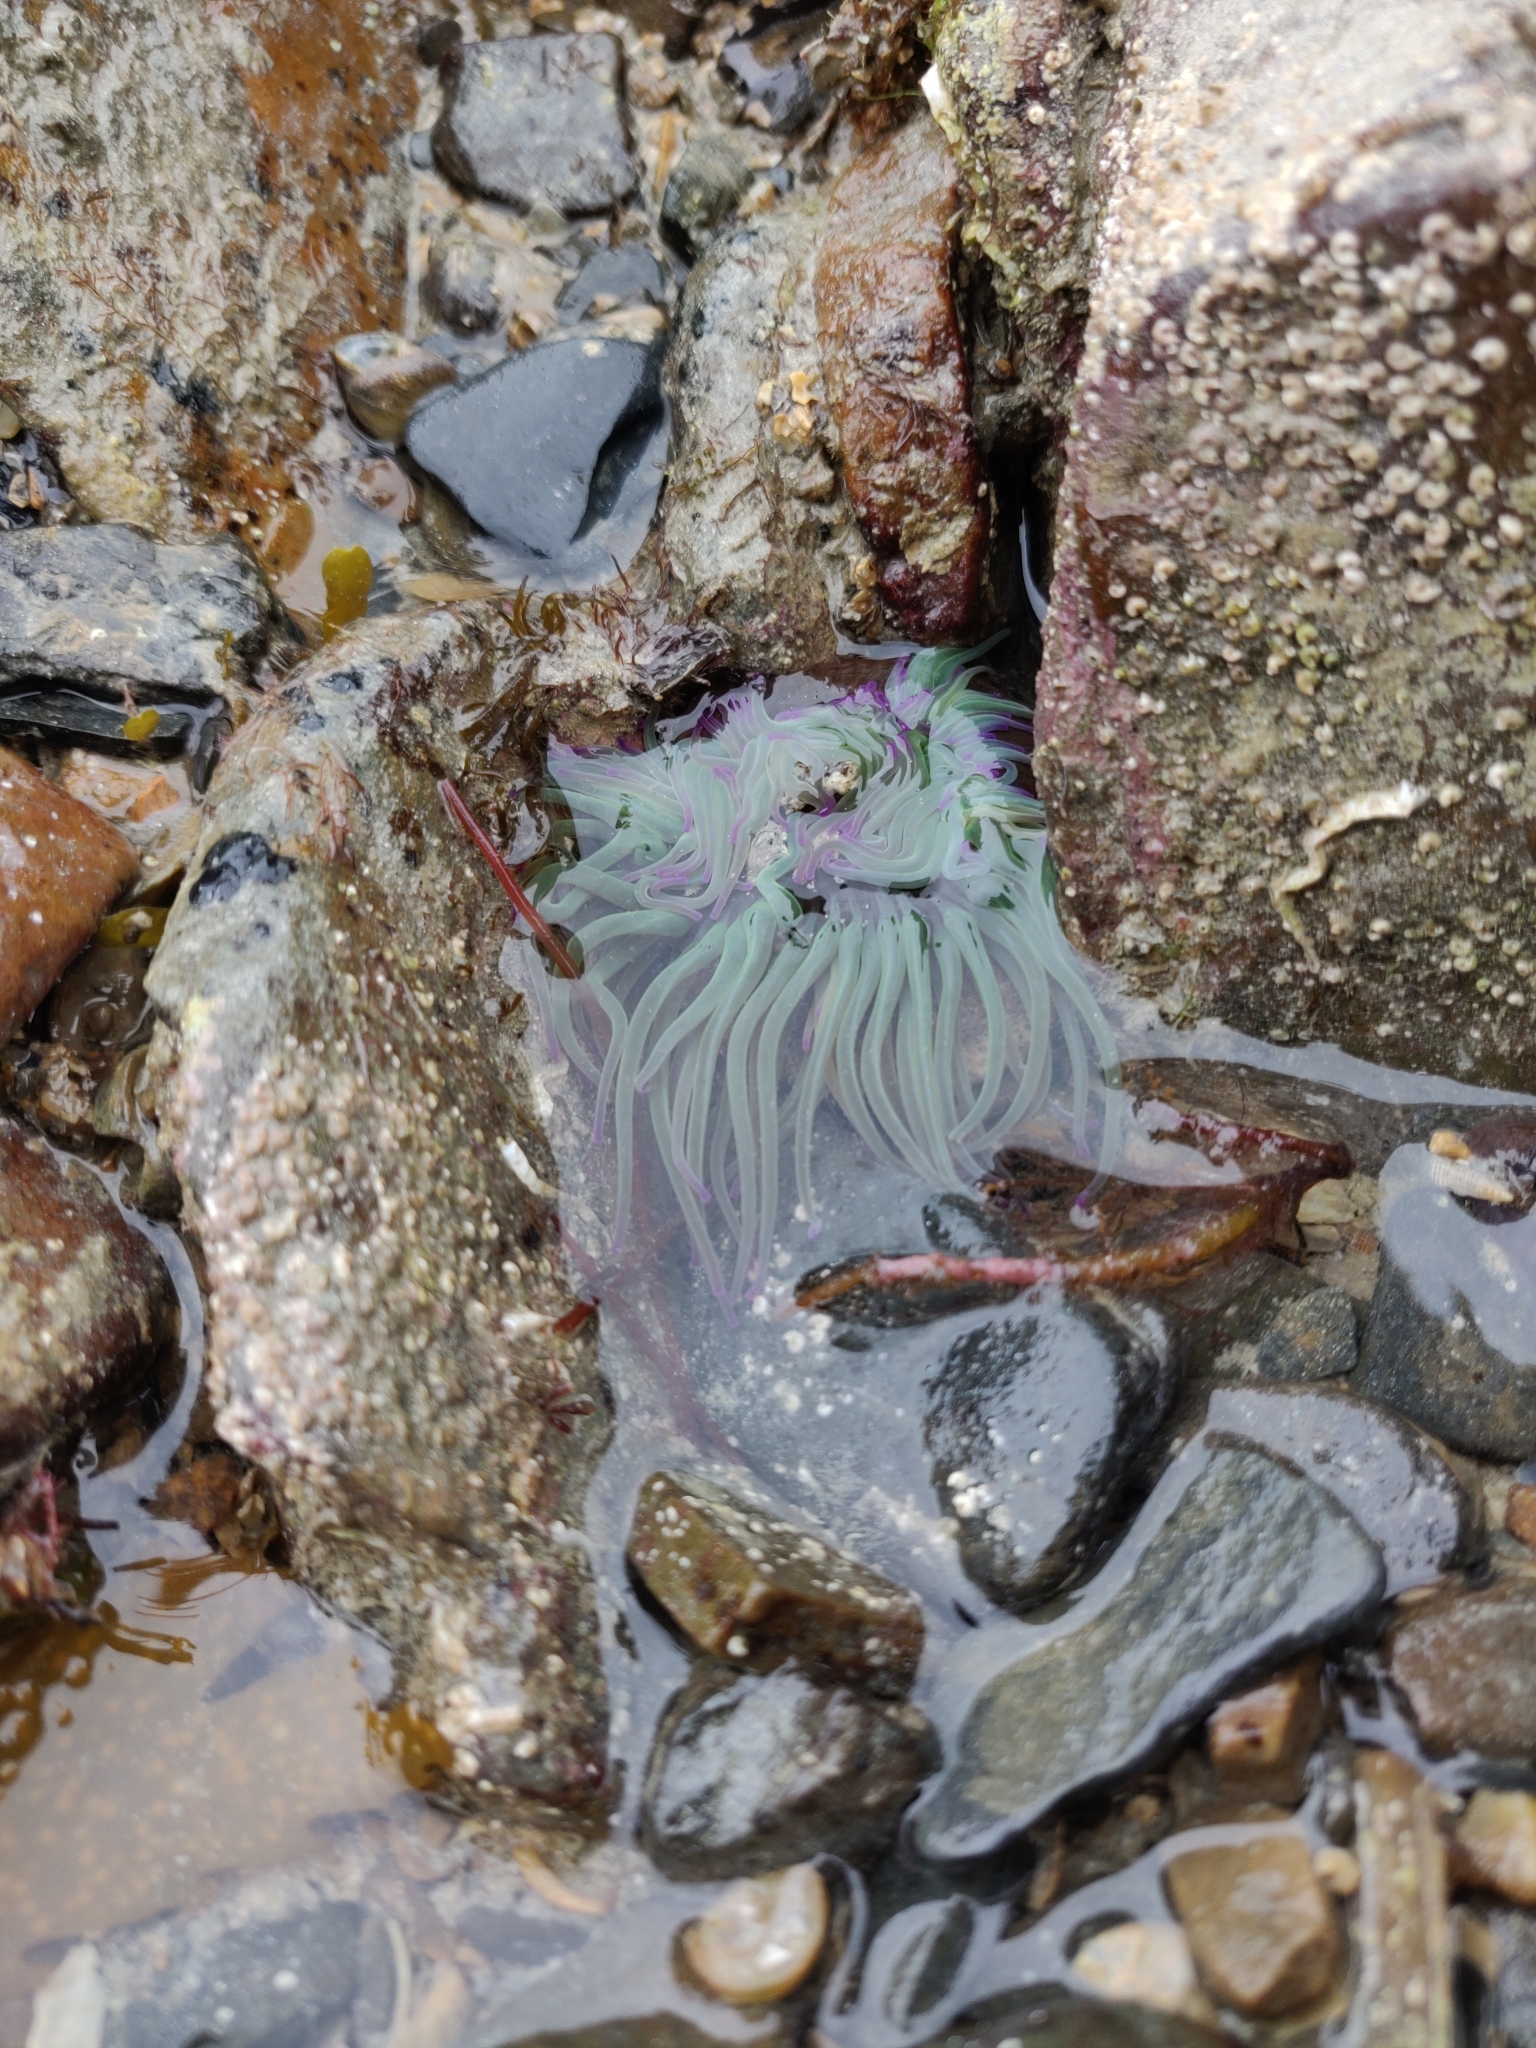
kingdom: Animalia
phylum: Cnidaria
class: Anthozoa
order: Actiniaria
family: Actiniidae
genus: Anemonia
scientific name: Anemonia viridis
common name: Snakelocks anemone
